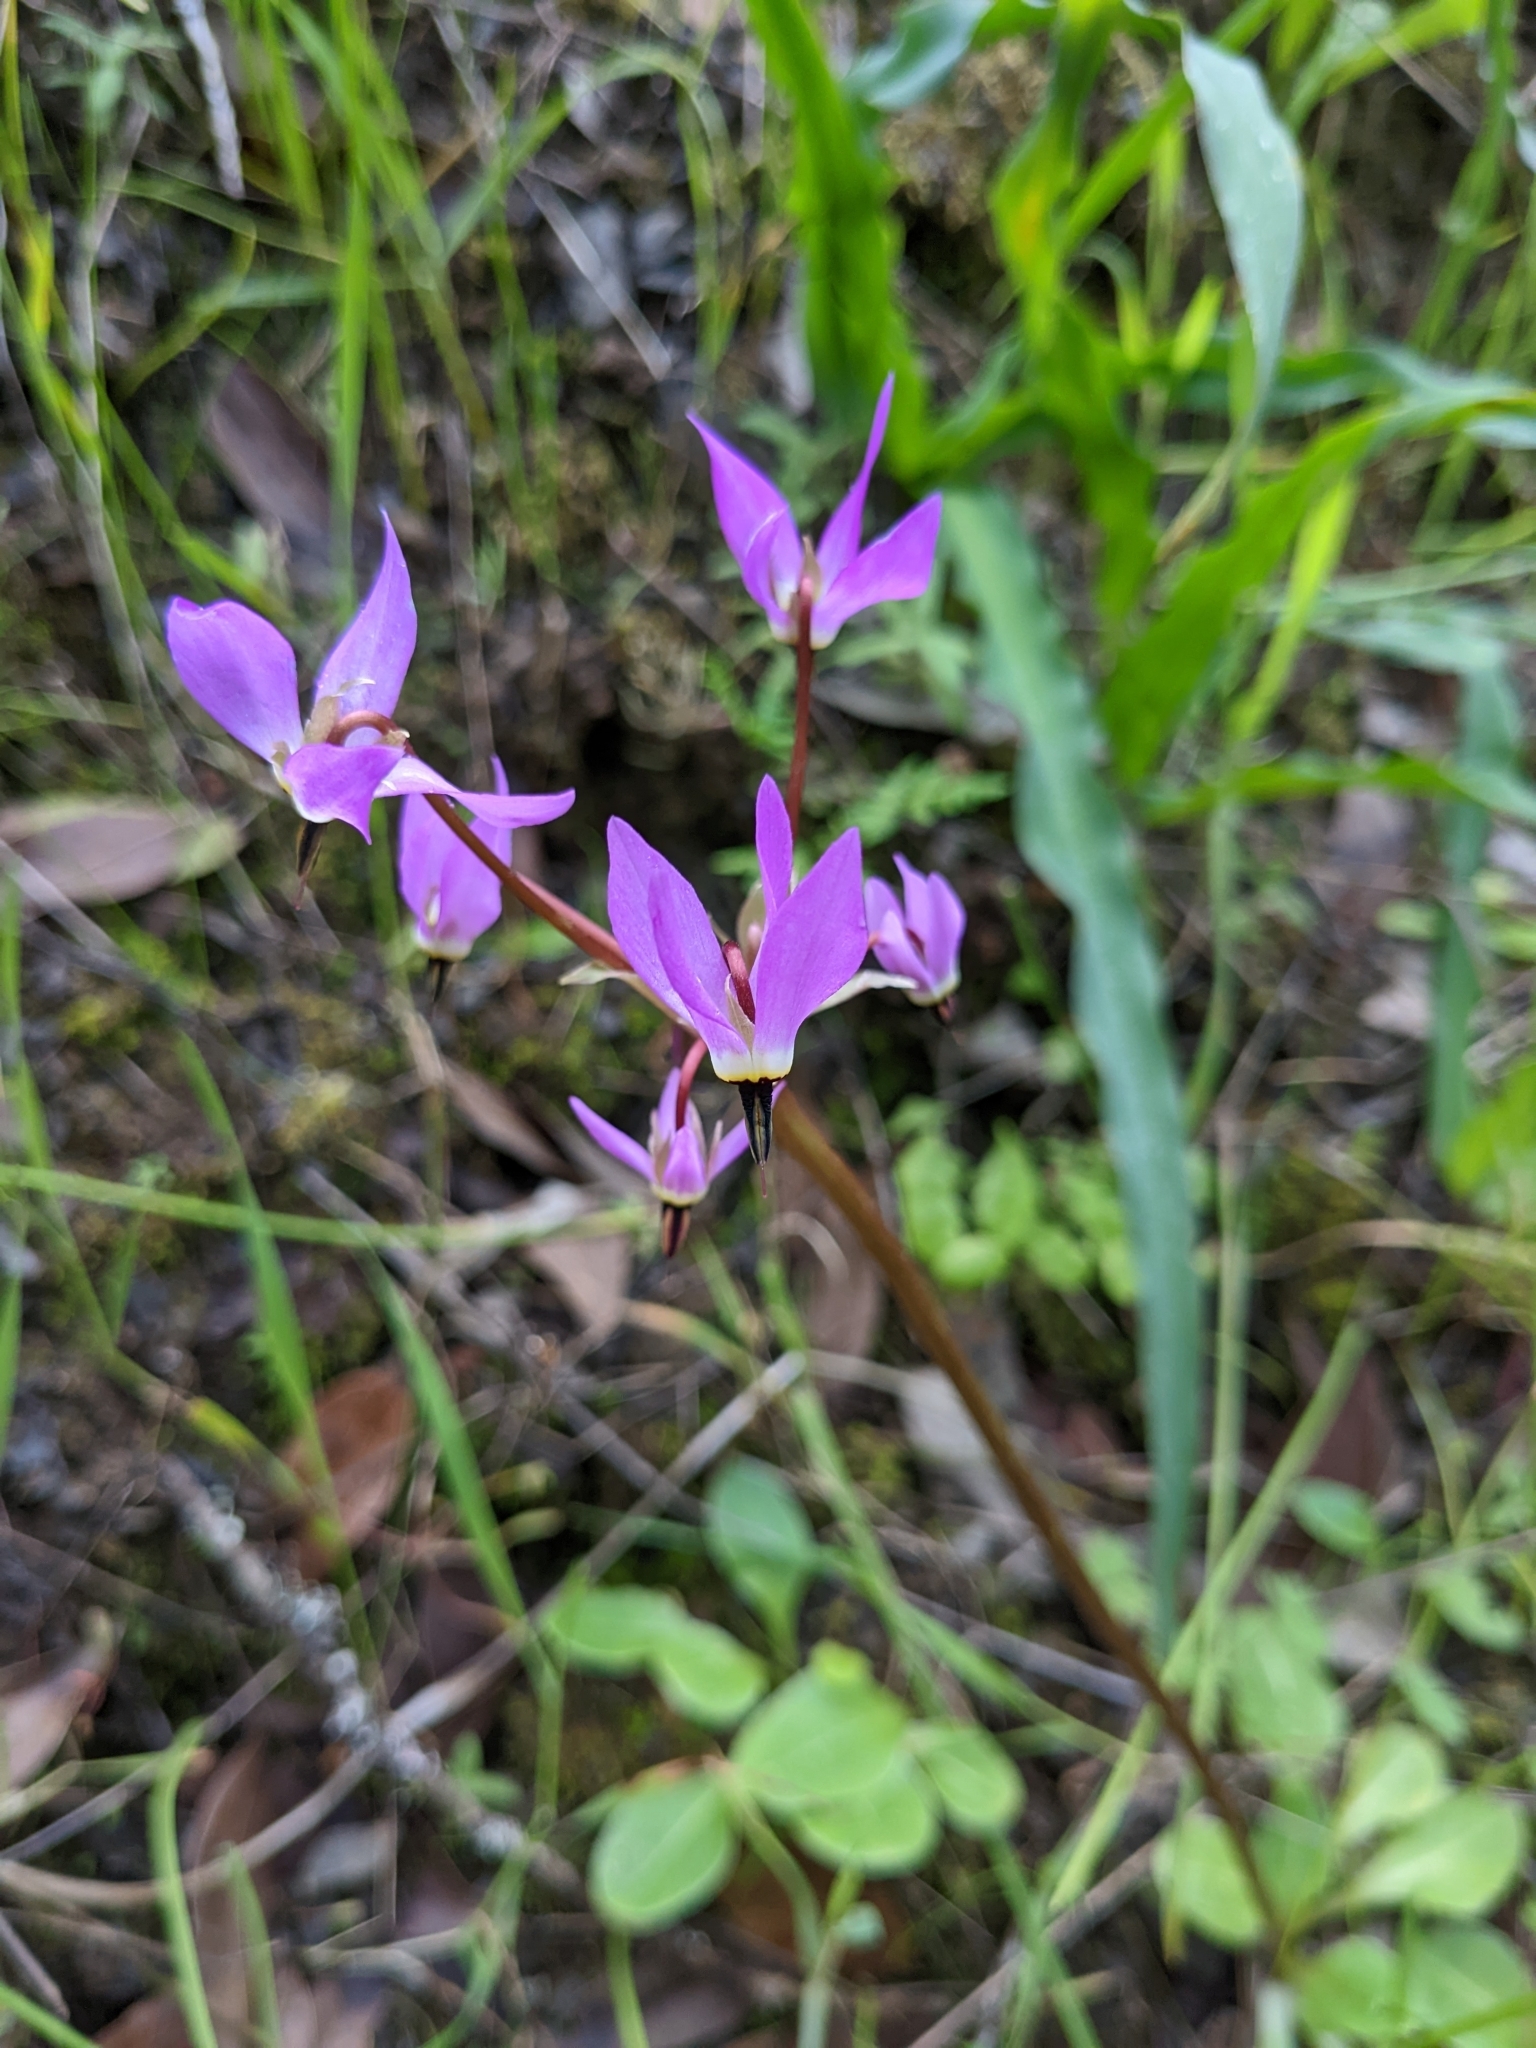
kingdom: Plantae
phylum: Tracheophyta
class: Magnoliopsida
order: Ericales
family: Primulaceae
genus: Dodecatheon
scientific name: Dodecatheon hendersonii
